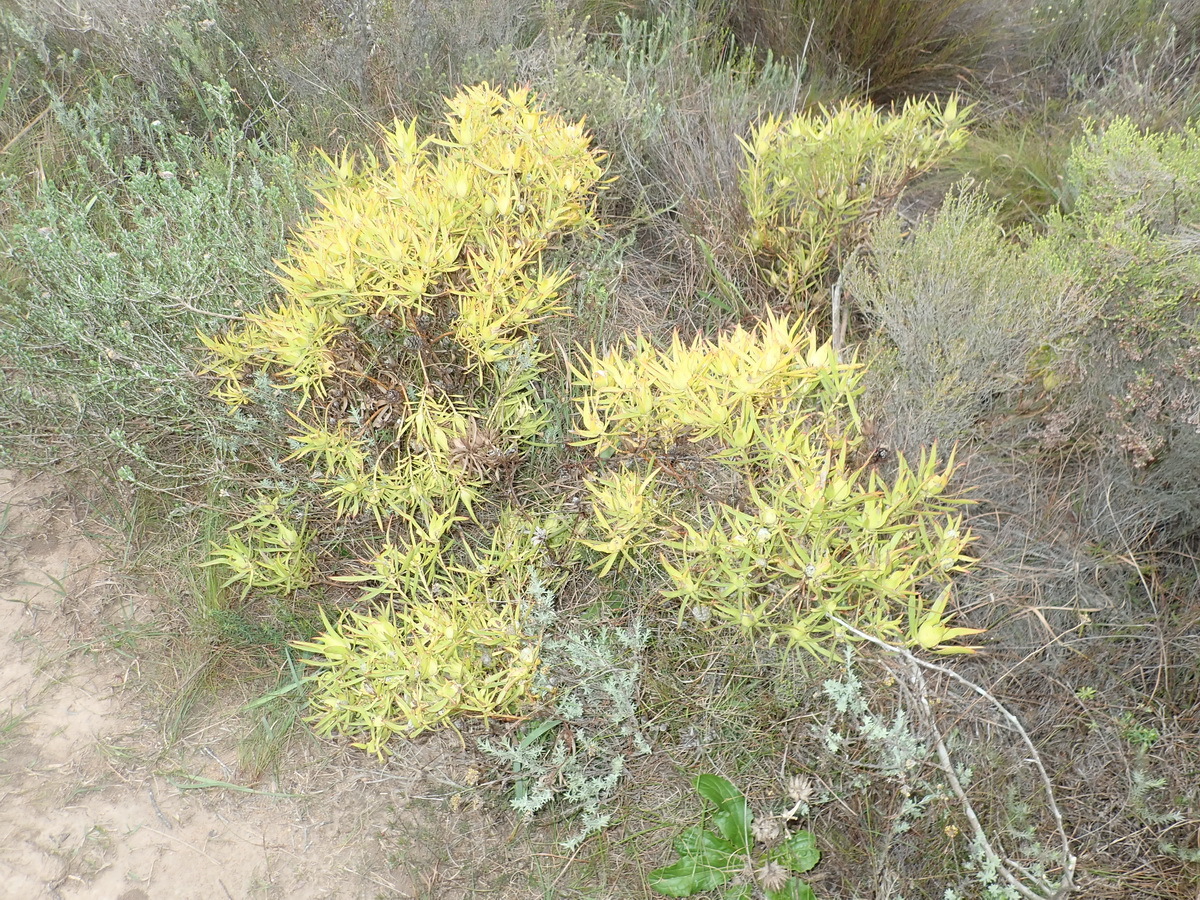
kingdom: Plantae
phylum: Tracheophyta
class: Magnoliopsida
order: Proteales
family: Proteaceae
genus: Leucadendron
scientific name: Leucadendron salignum
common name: Common sunshine conebush
